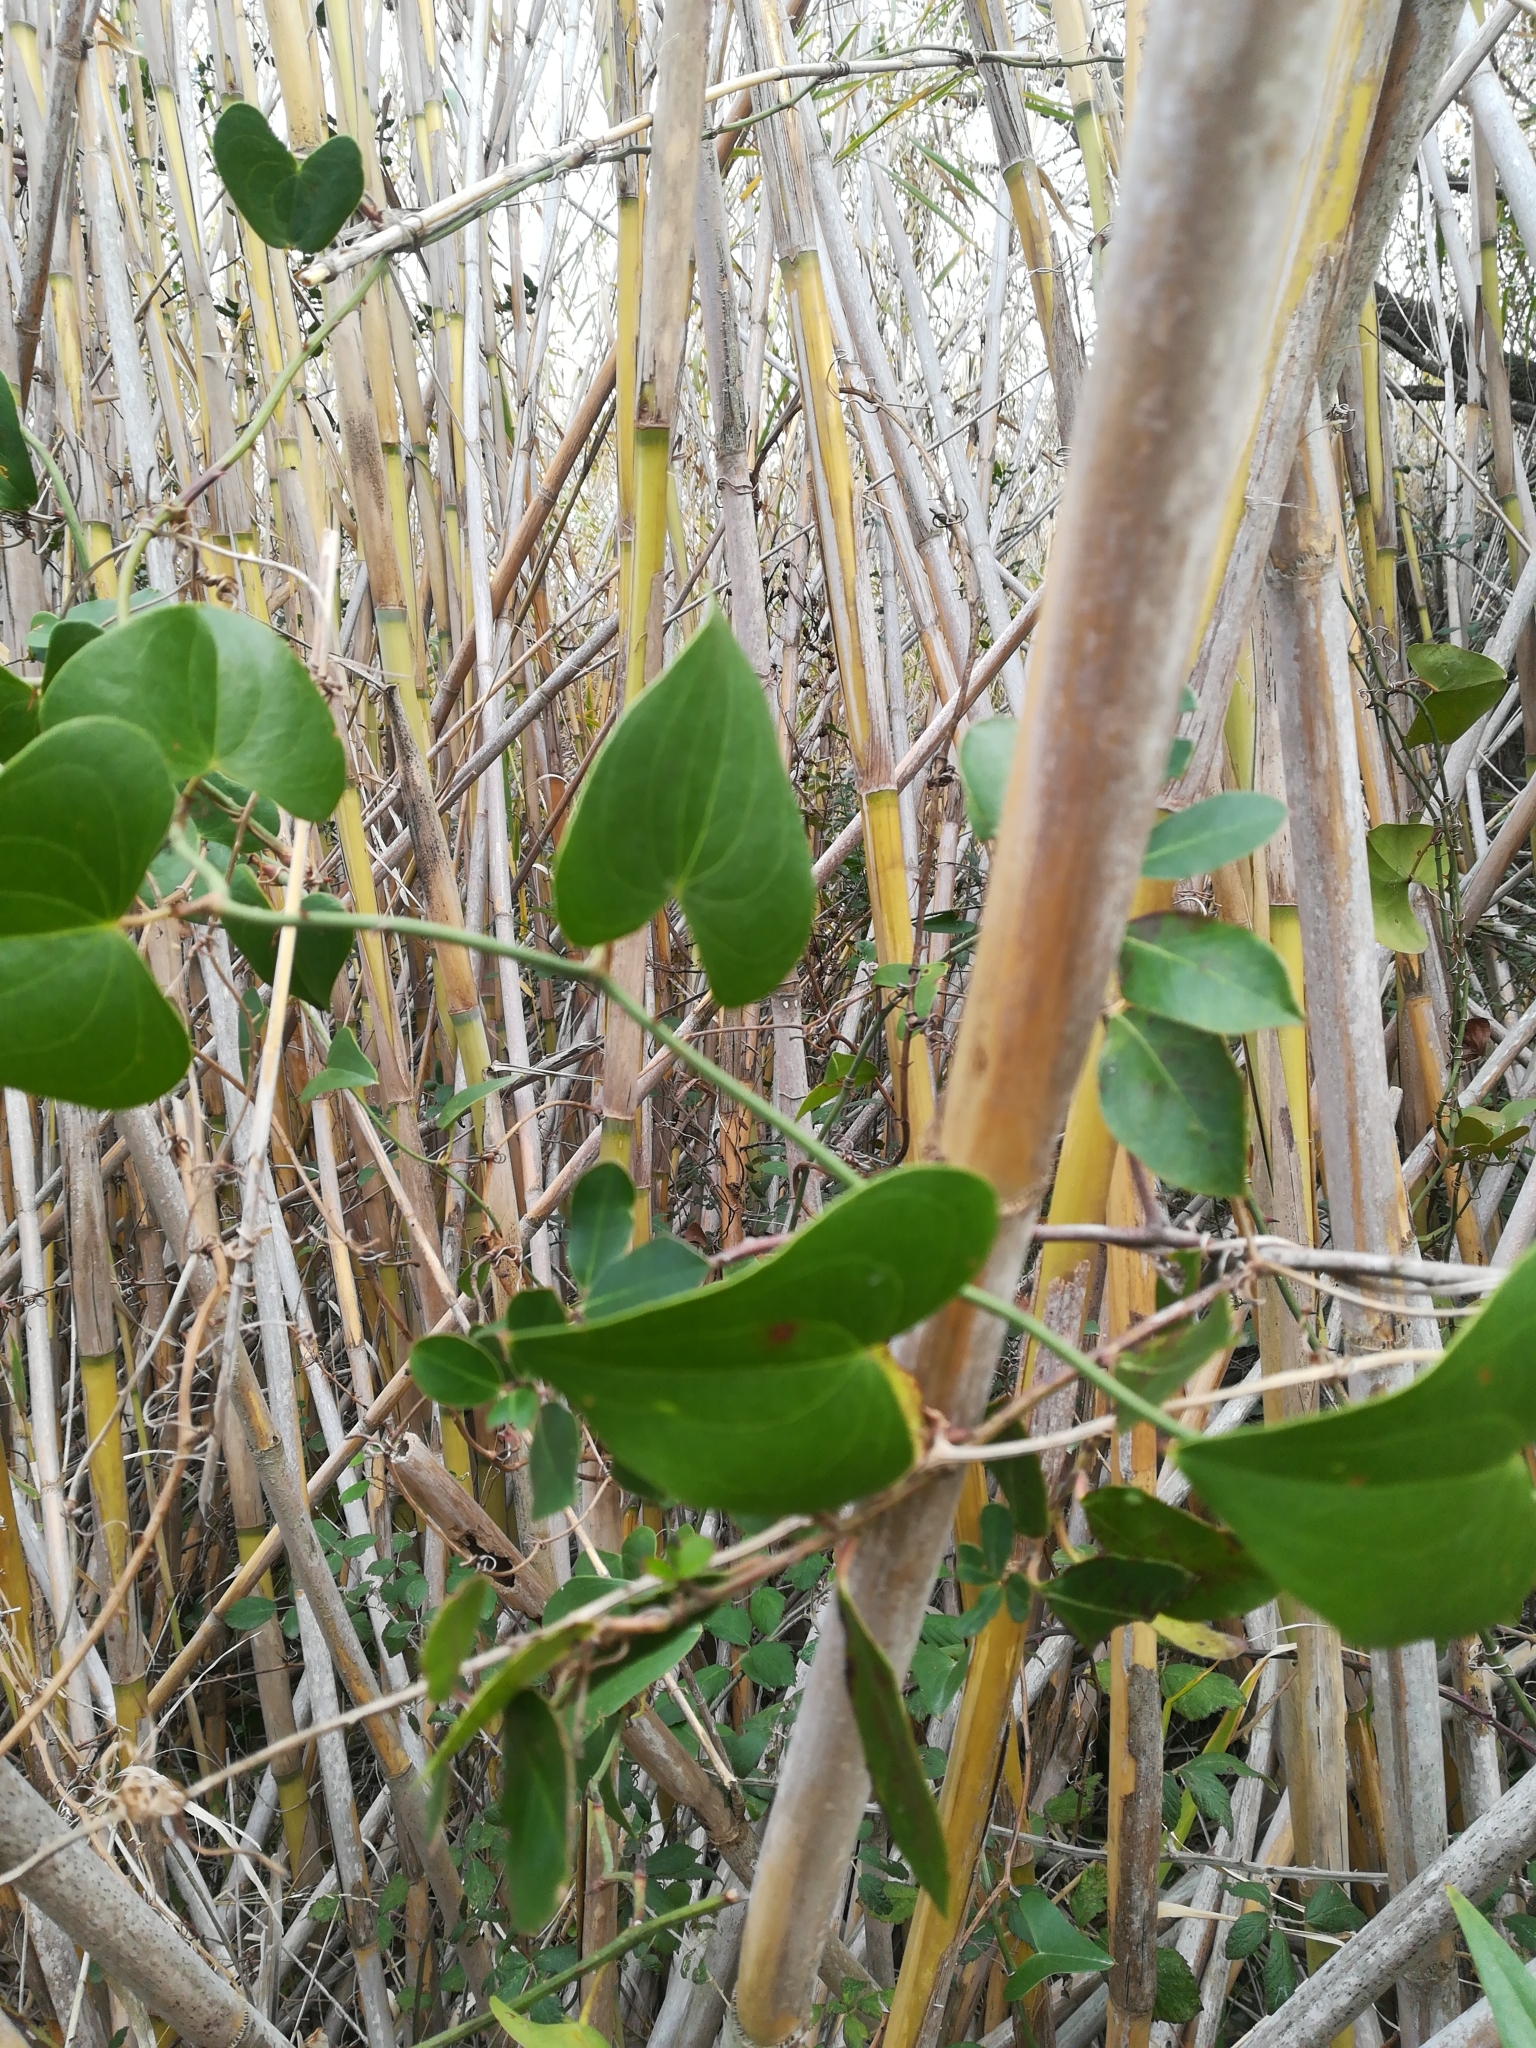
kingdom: Plantae
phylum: Tracheophyta
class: Liliopsida
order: Liliales
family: Smilacaceae
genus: Smilax
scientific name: Smilax aspera
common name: Common smilax
